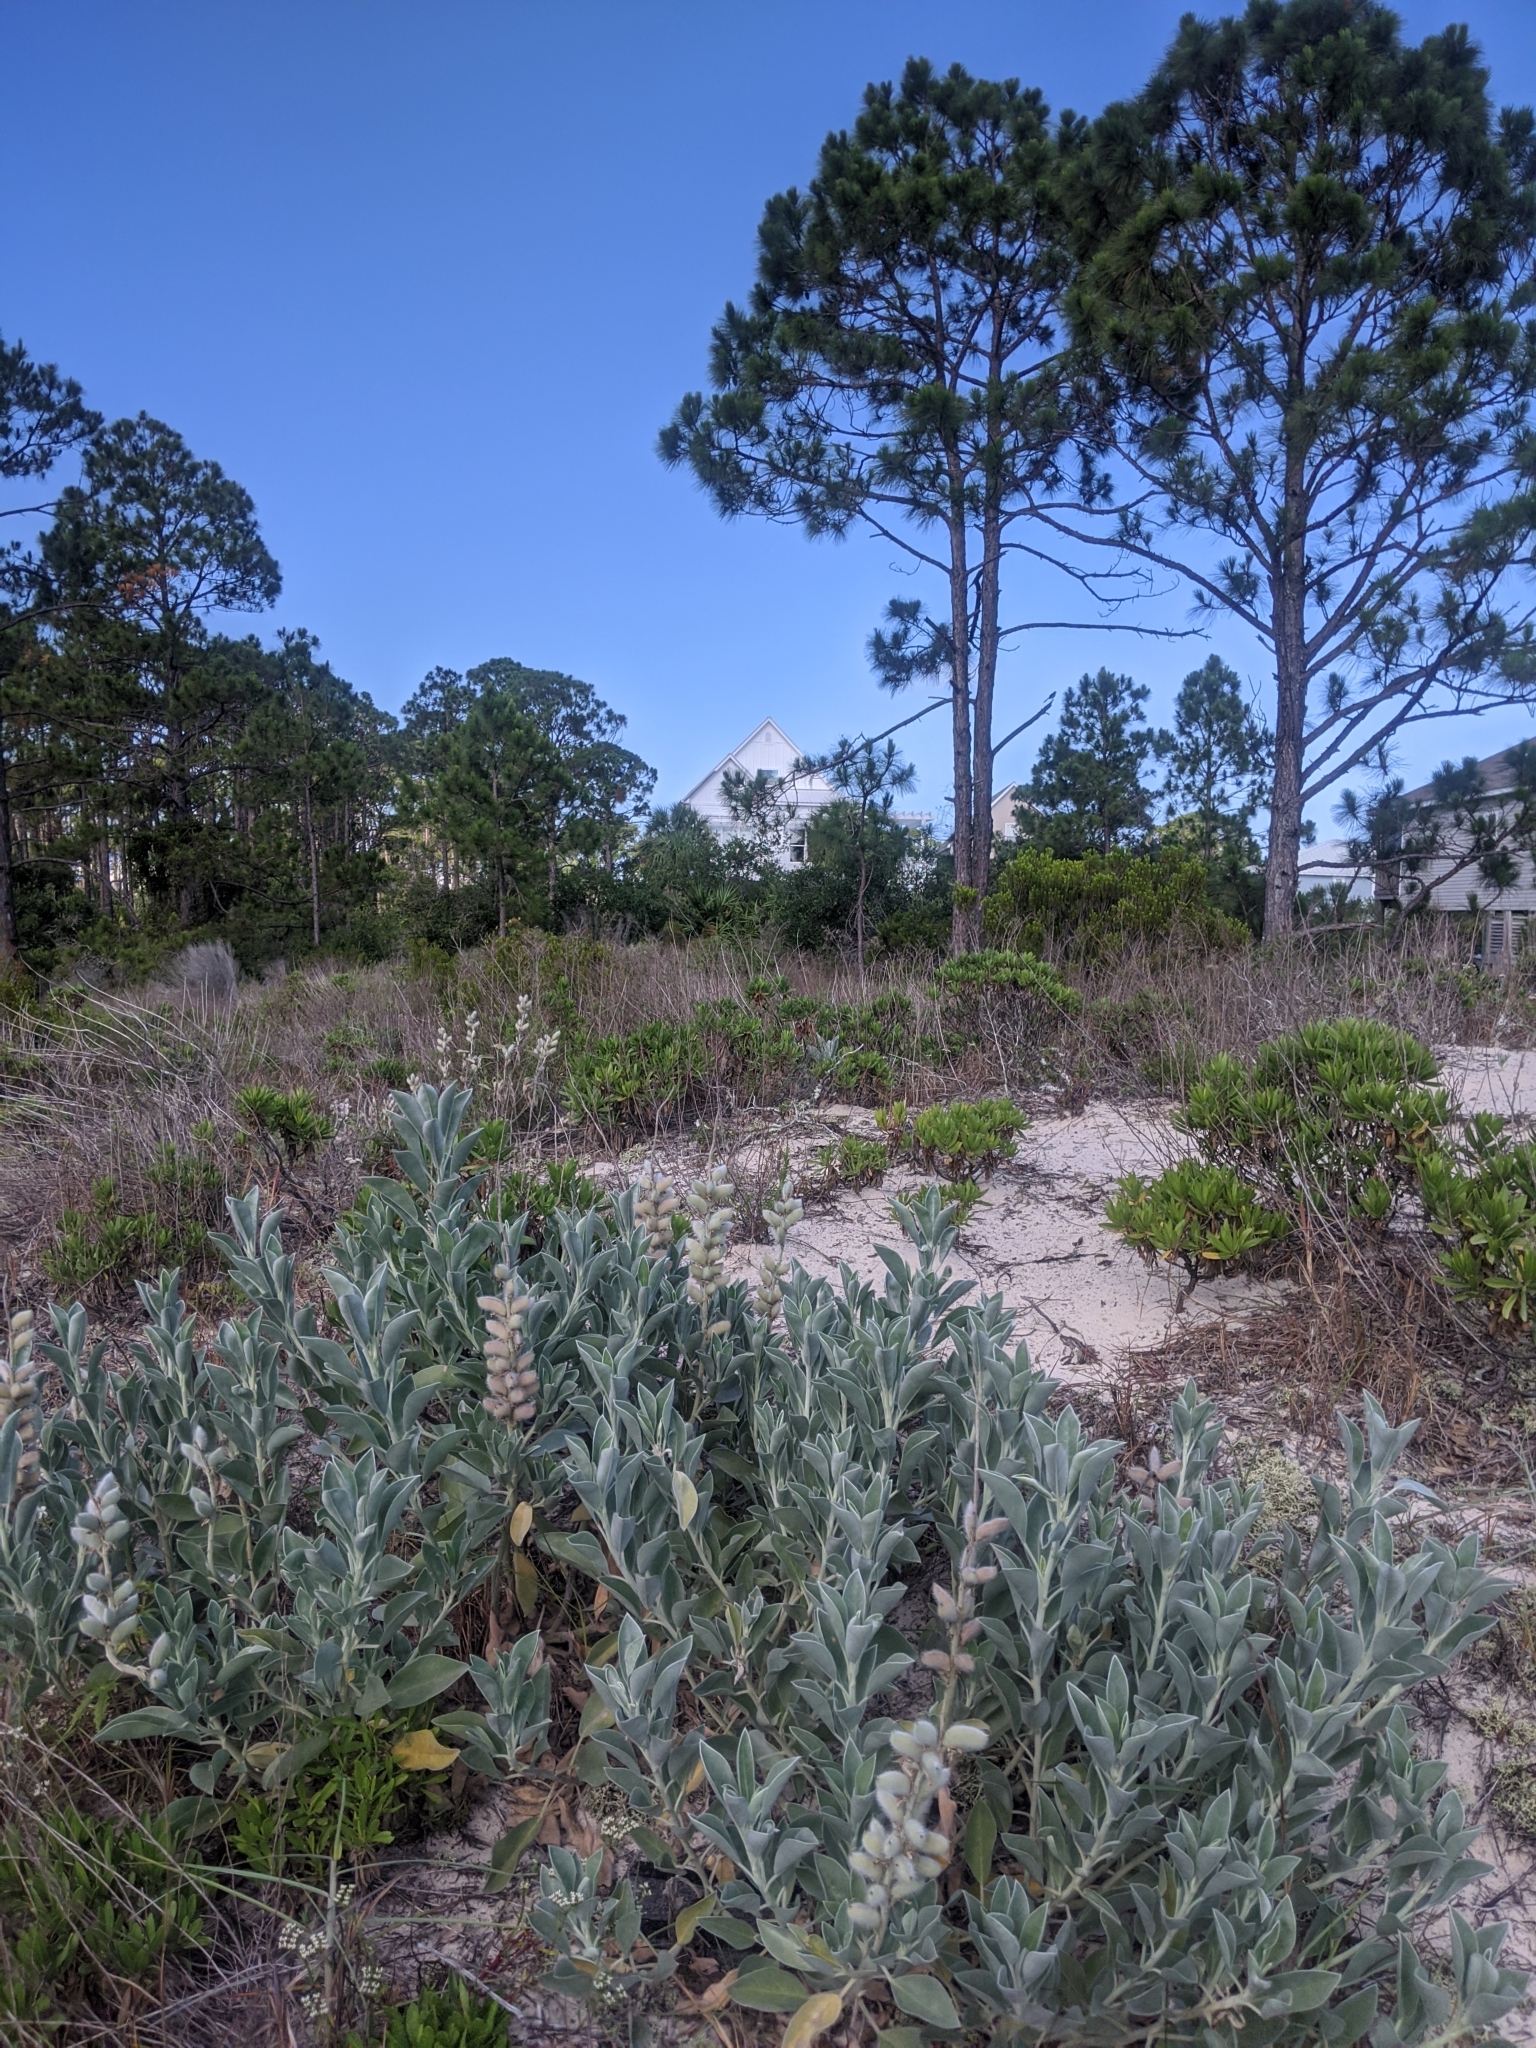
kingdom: Plantae
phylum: Tracheophyta
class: Magnoliopsida
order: Fabales
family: Fabaceae
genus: Lupinus
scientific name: Lupinus westianus
